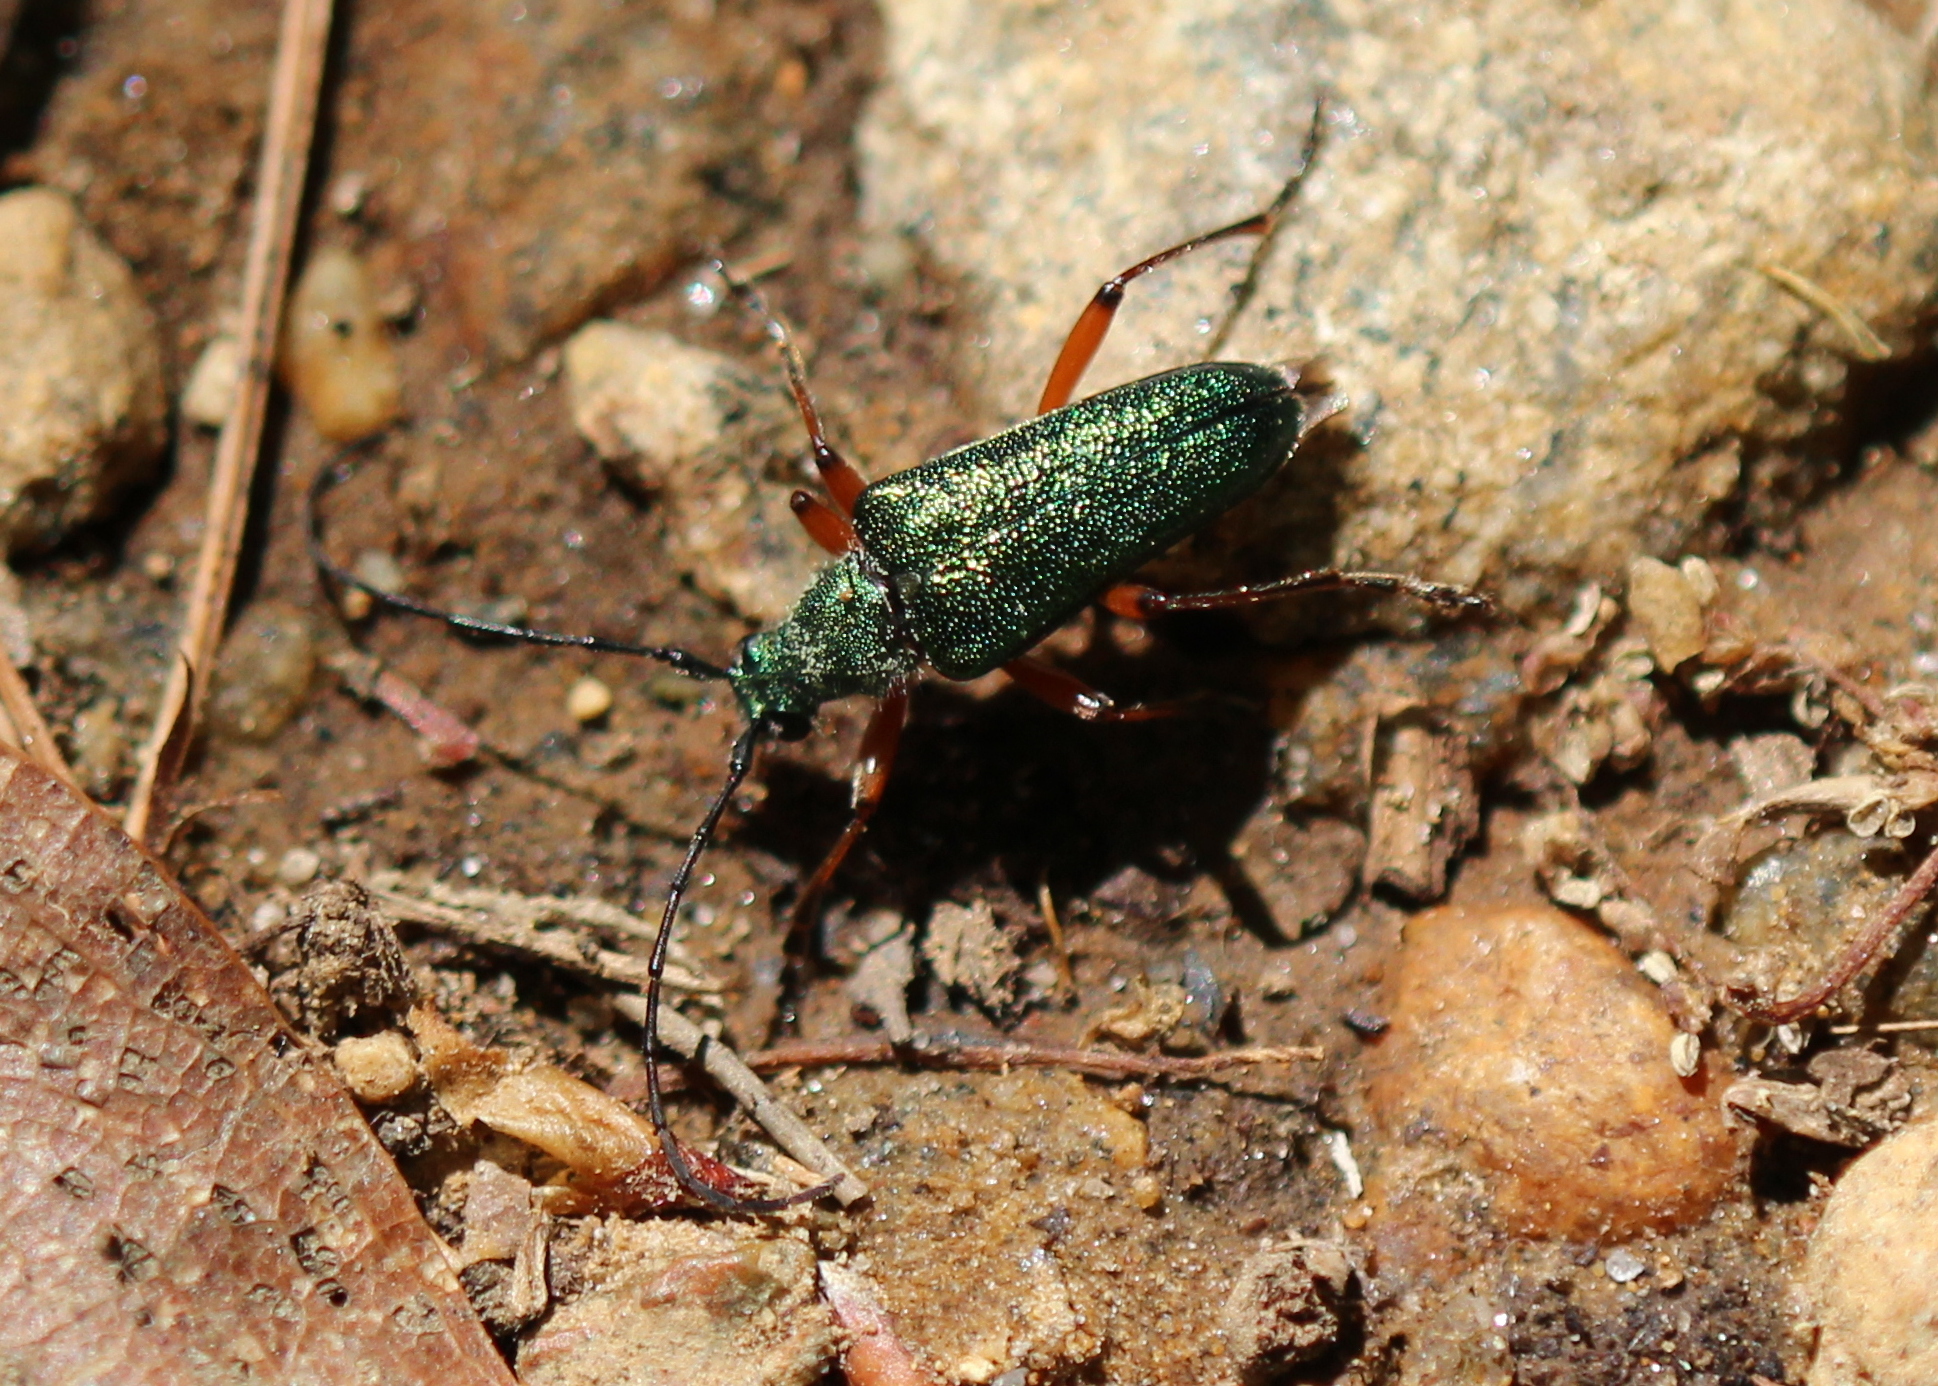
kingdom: Animalia
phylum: Arthropoda
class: Insecta
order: Coleoptera
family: Cerambycidae
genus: Anthophylax
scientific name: Anthophylax cyaneus
